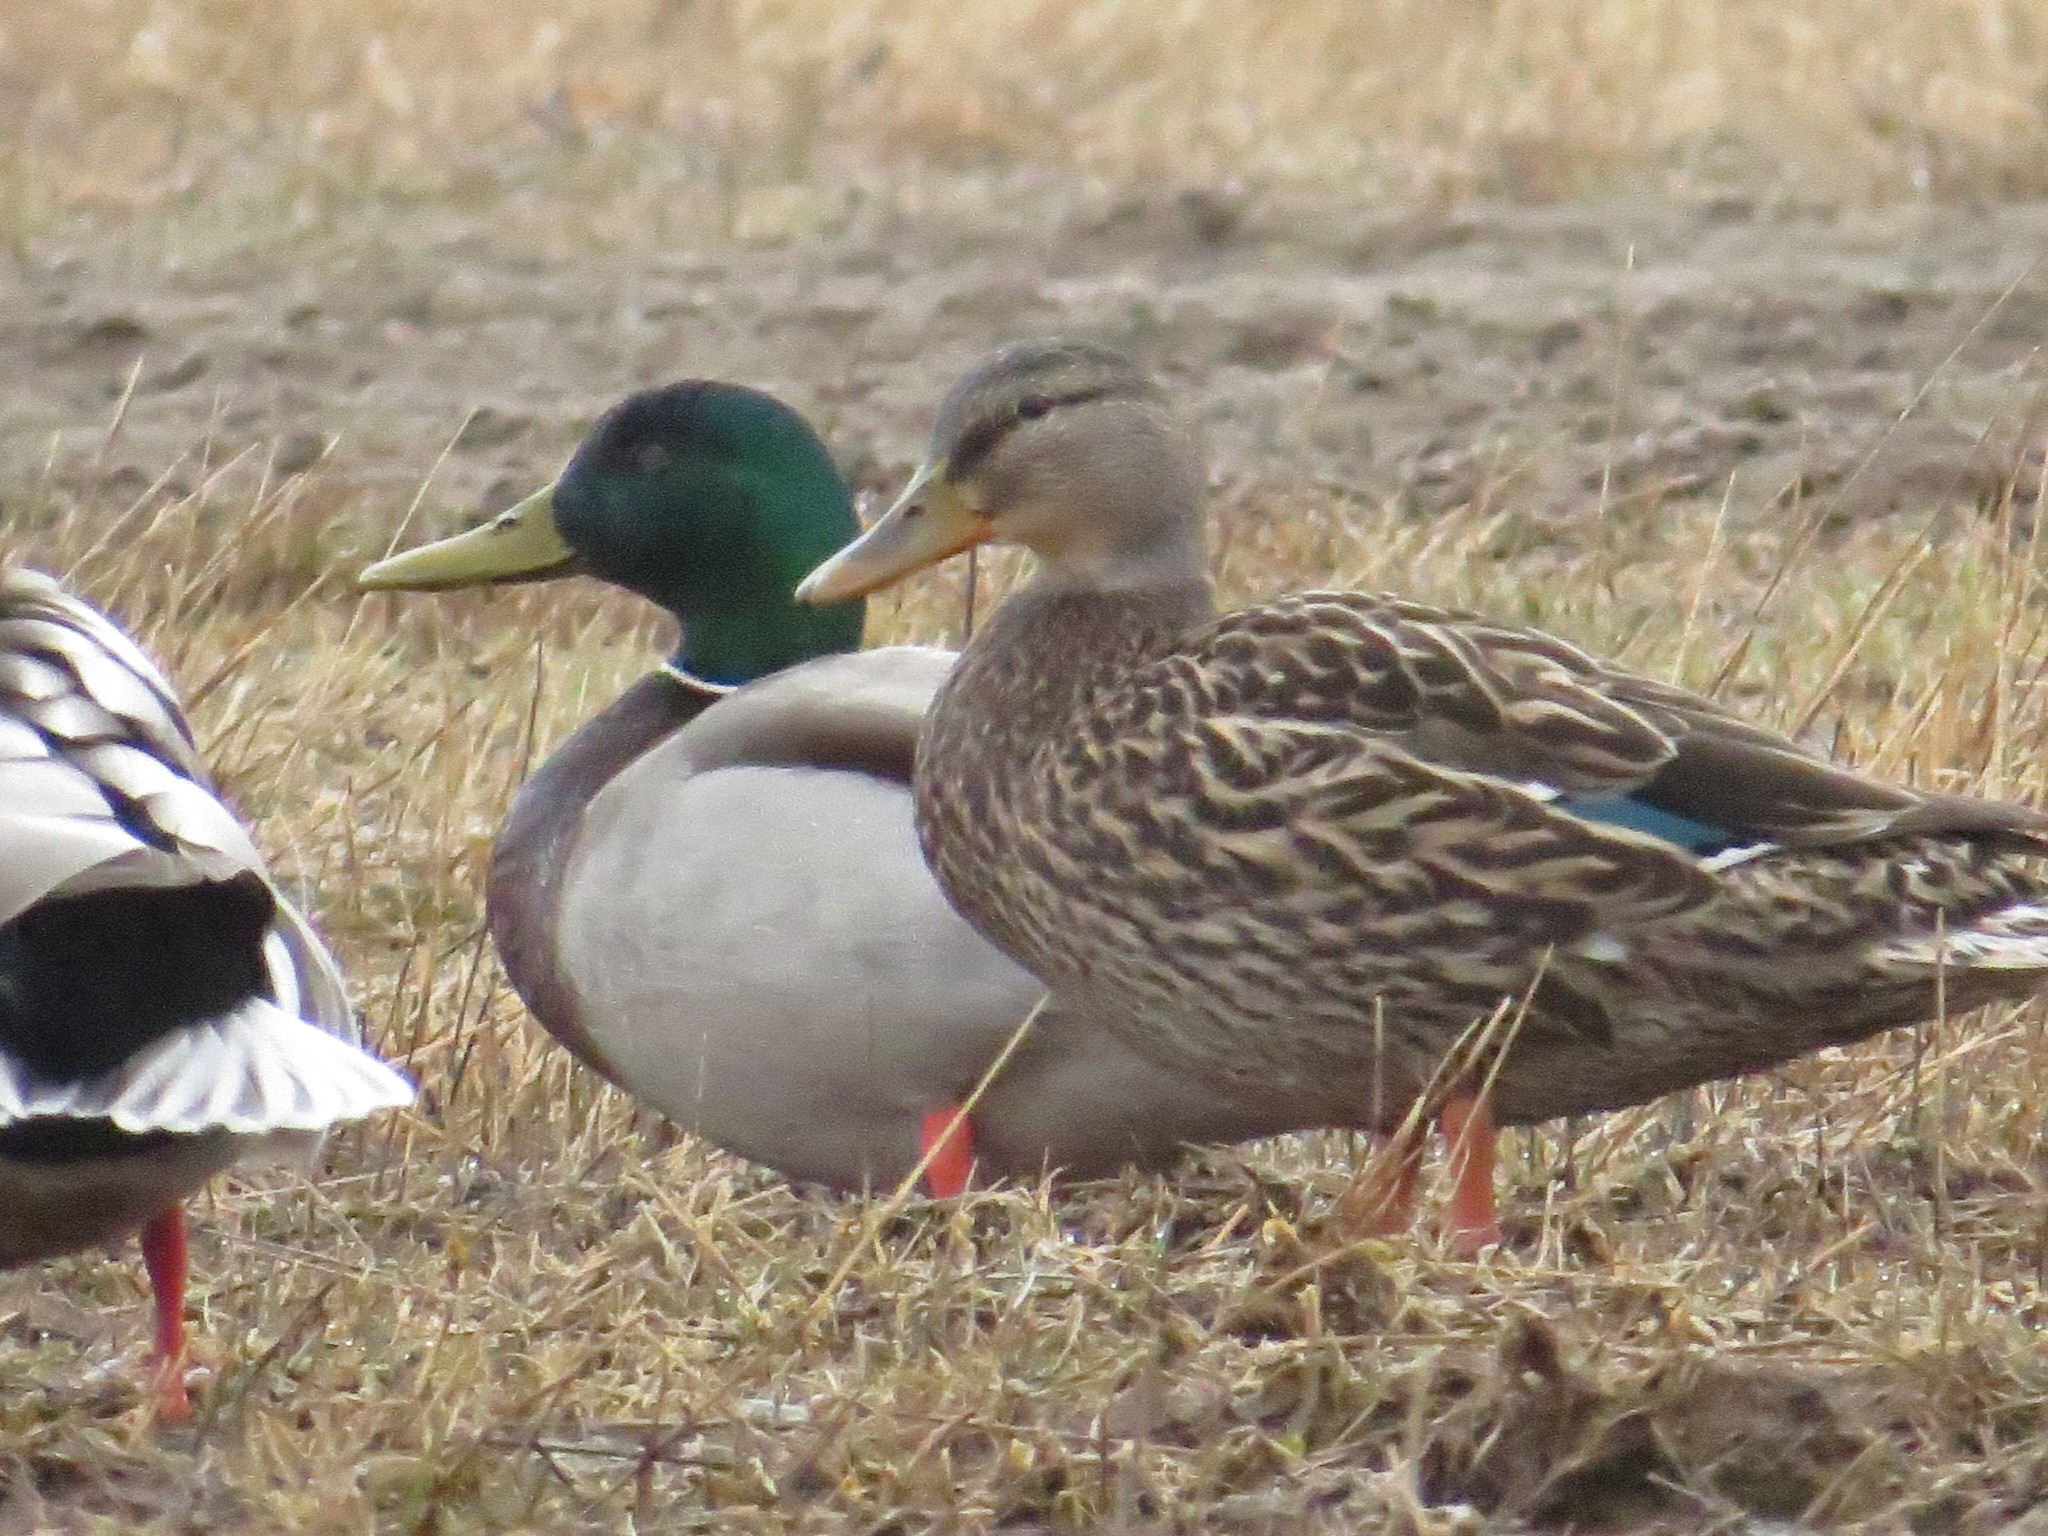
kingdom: Animalia
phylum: Chordata
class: Aves
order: Anseriformes
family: Anatidae
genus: Anas
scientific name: Anas platyrhynchos
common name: Mallard
